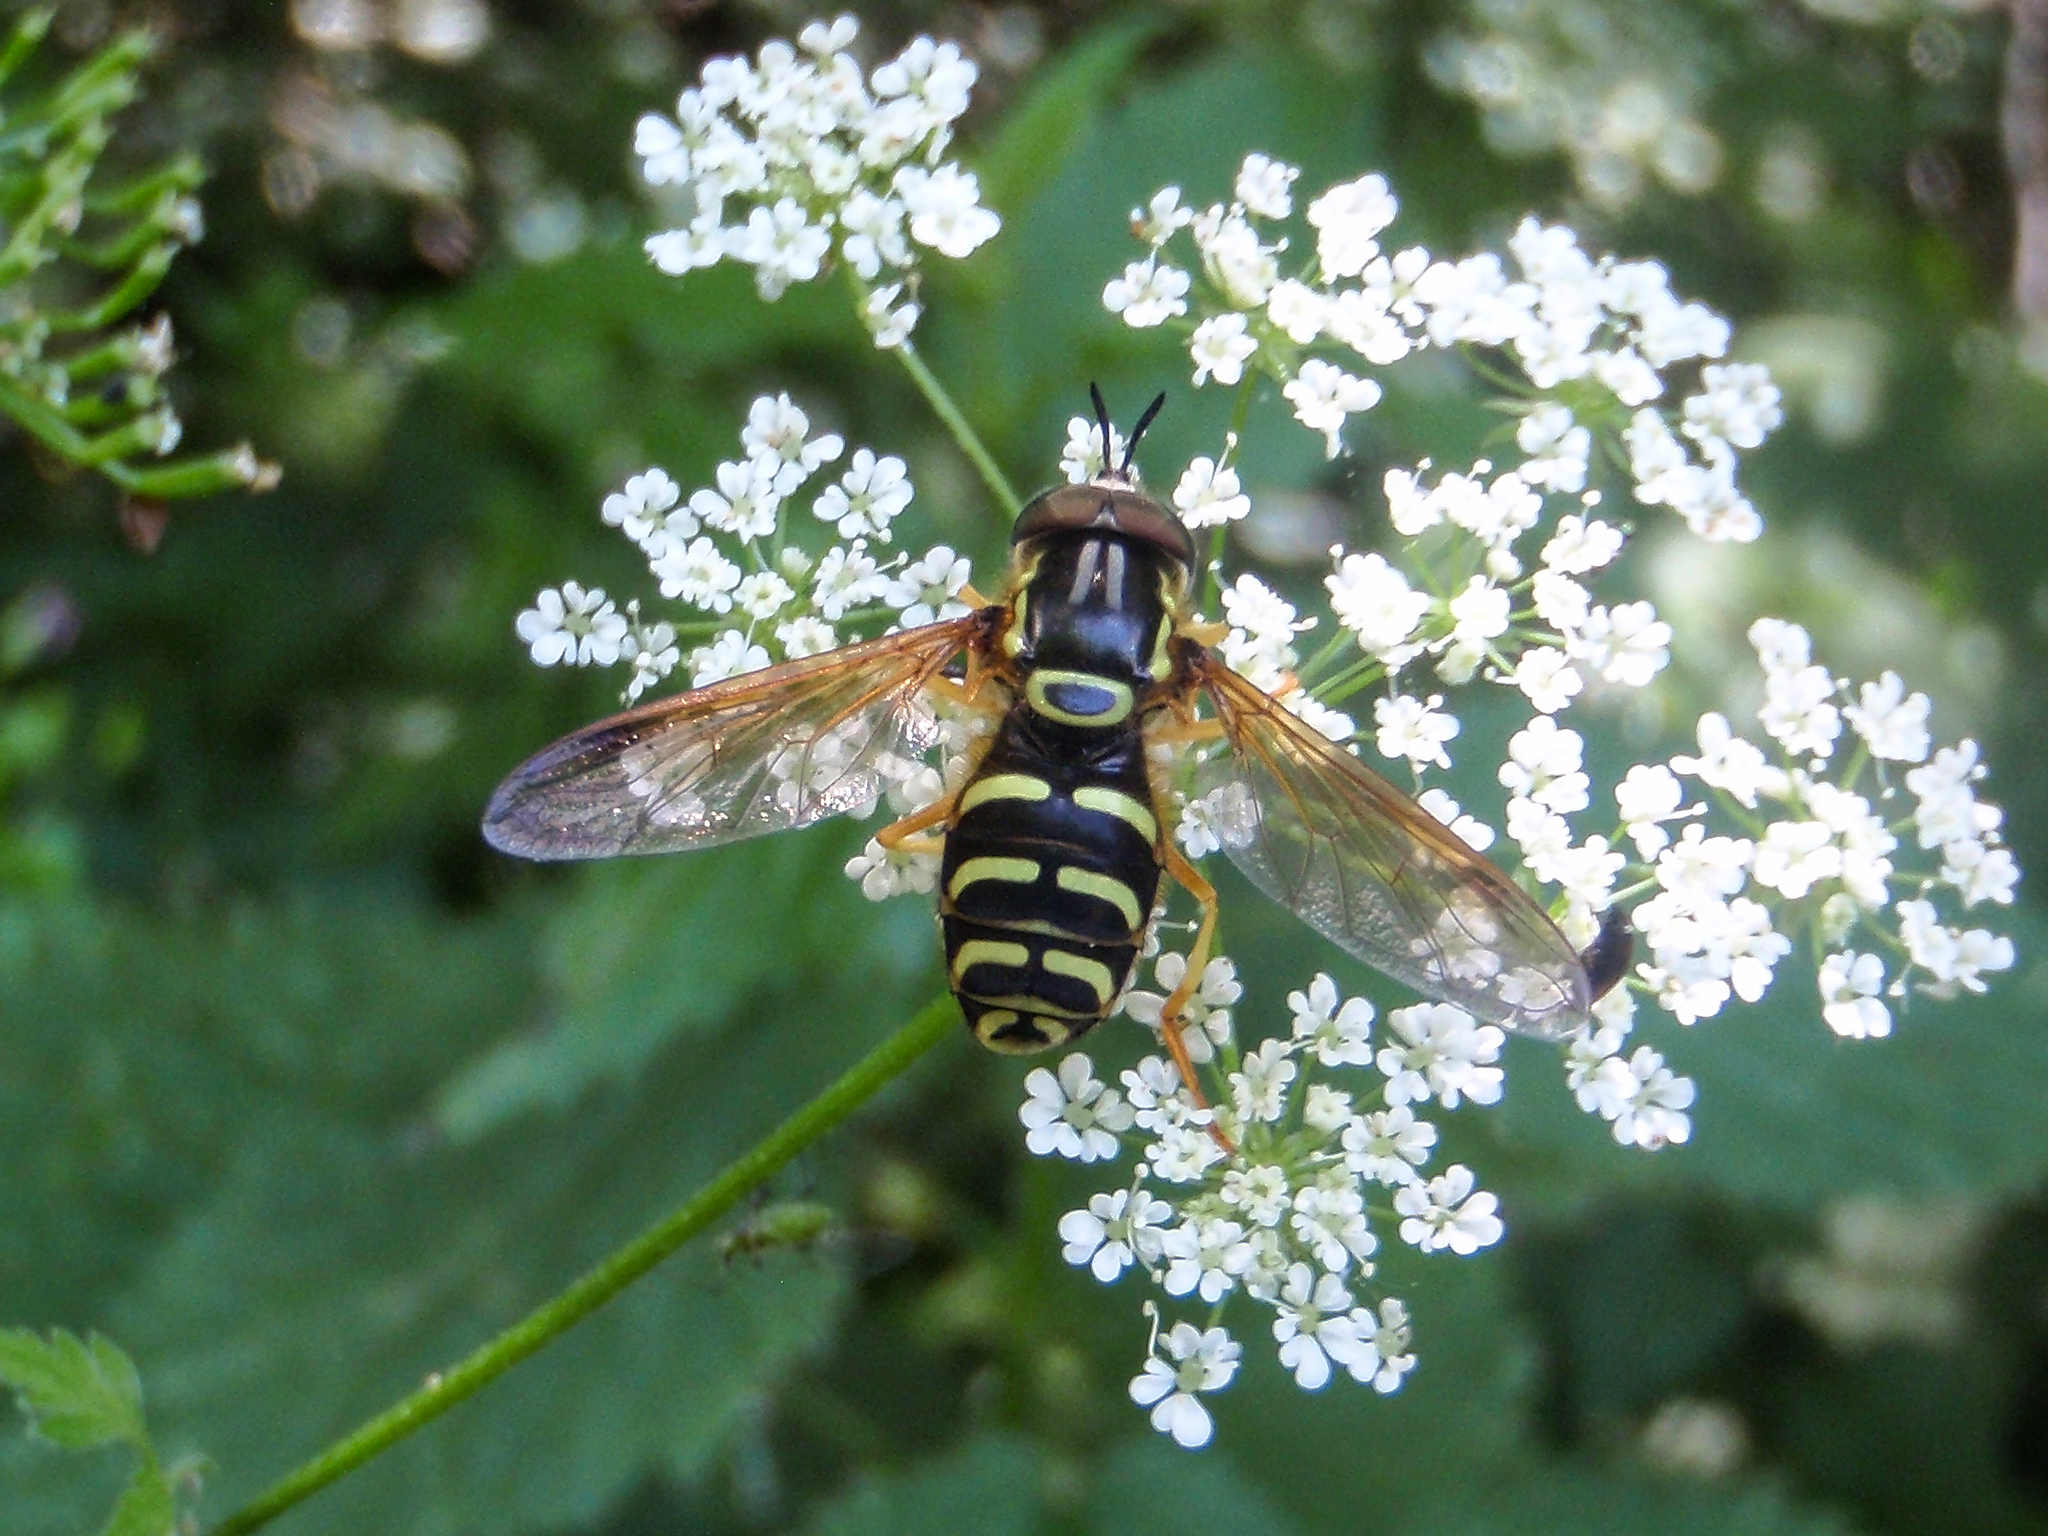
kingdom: Animalia
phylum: Arthropoda
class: Insecta
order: Diptera
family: Syrphidae
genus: Chrysotoxum
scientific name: Chrysotoxum
